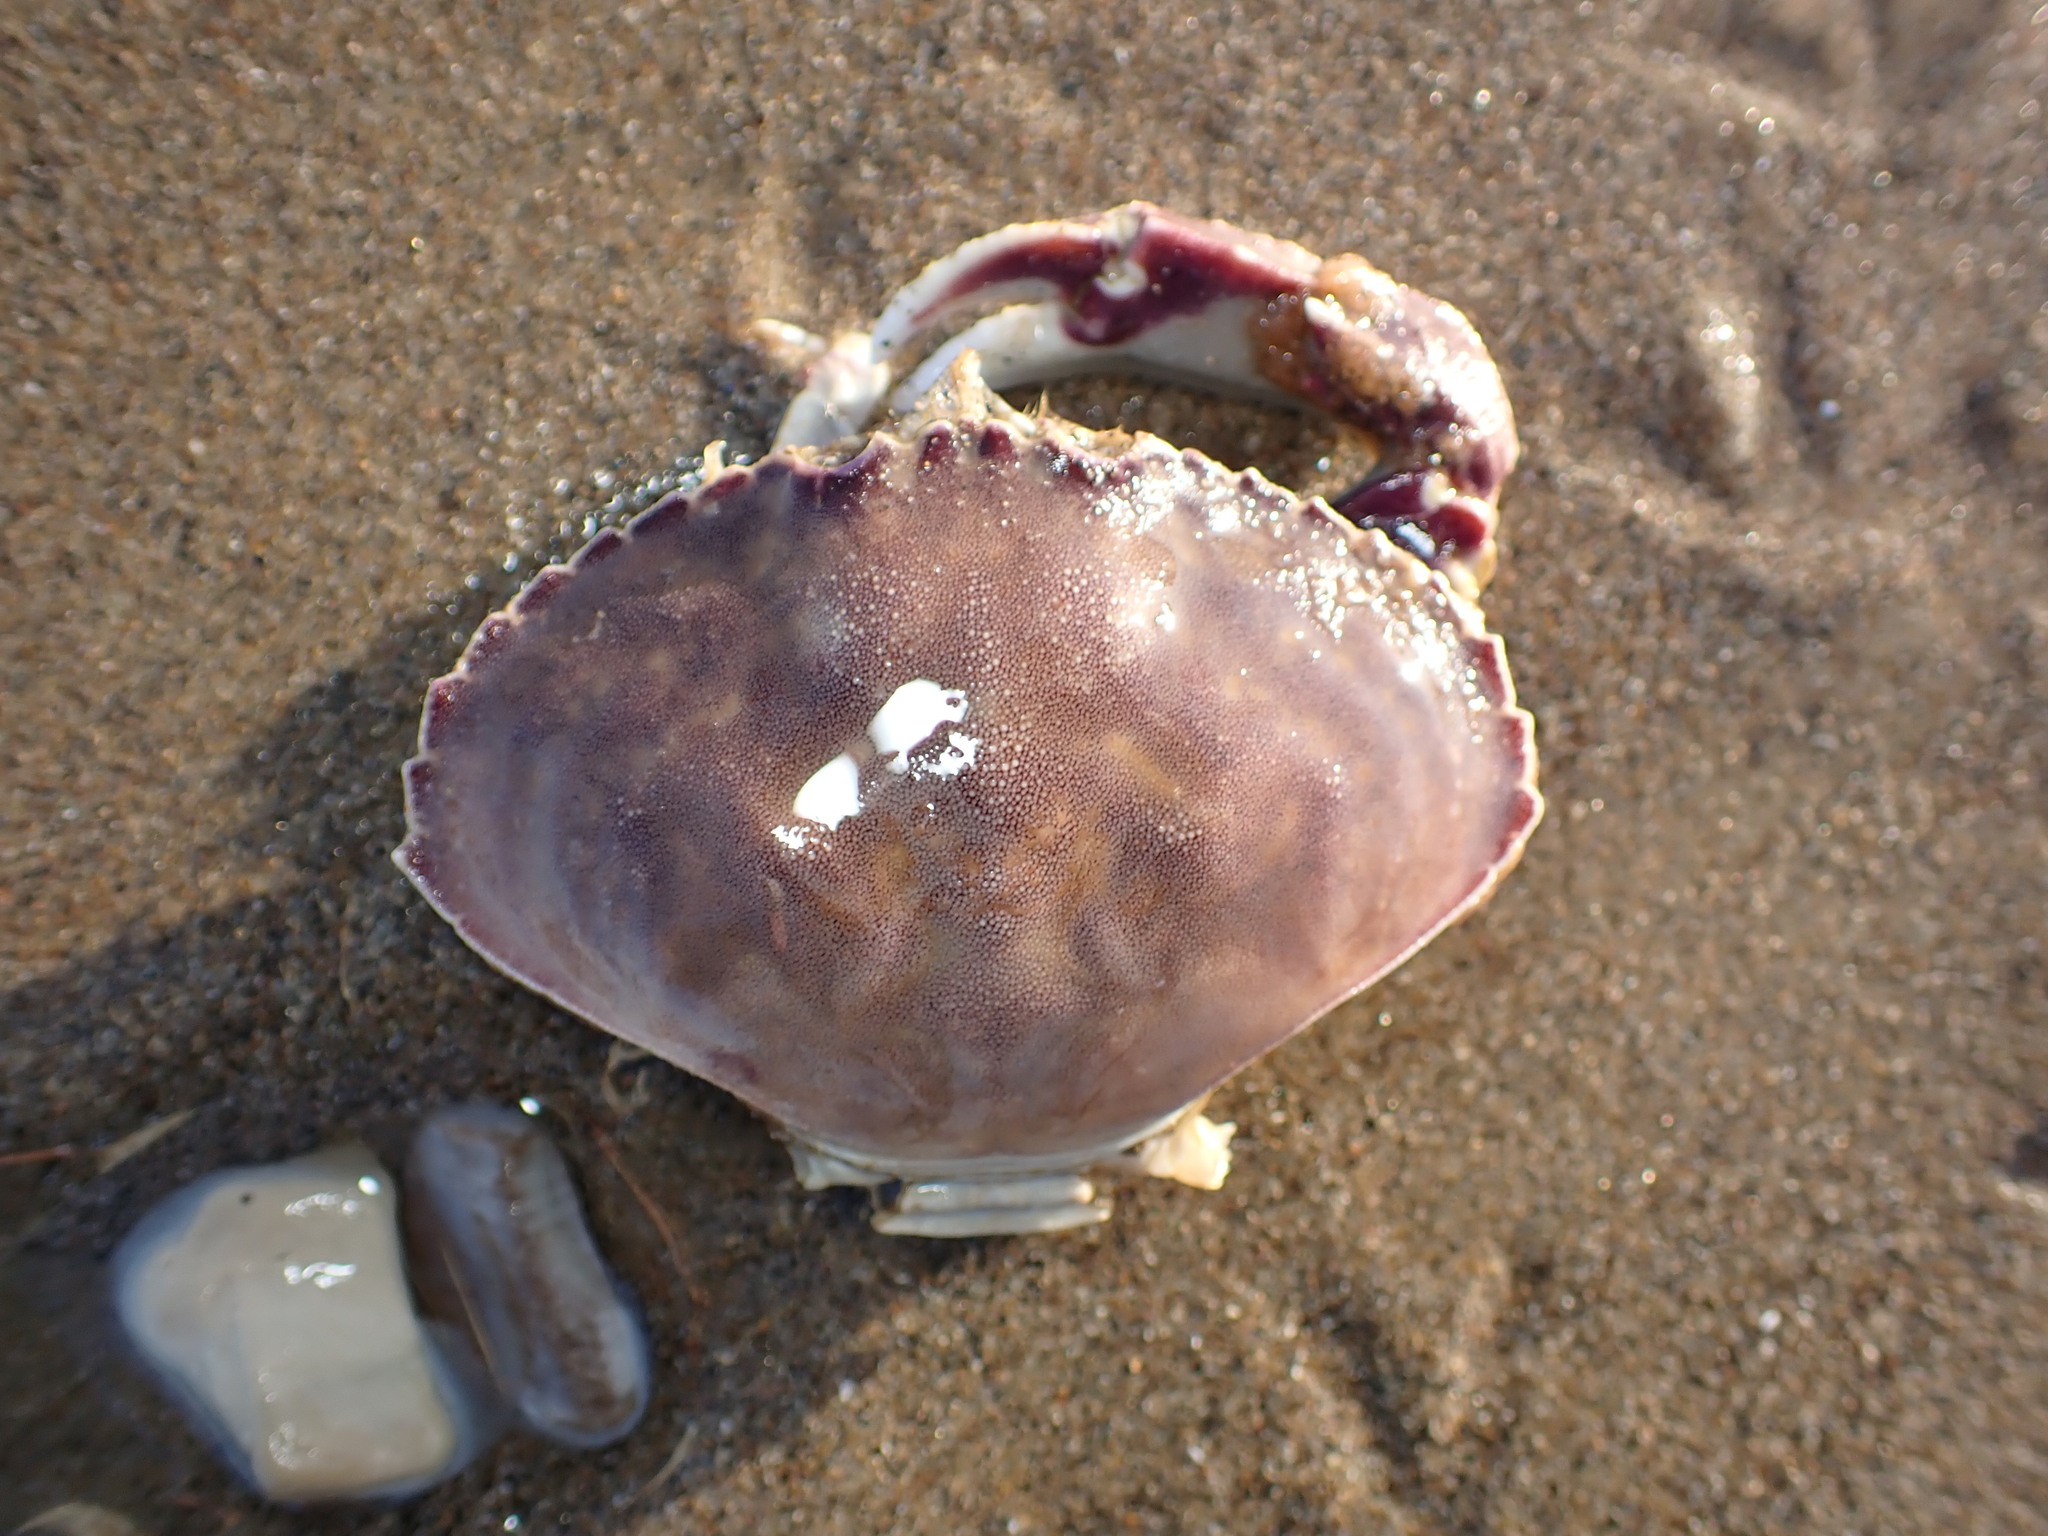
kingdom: Animalia
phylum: Arthropoda
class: Malacostraca
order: Decapoda
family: Cancridae
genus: Metacarcinus
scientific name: Metacarcinus gracilis
